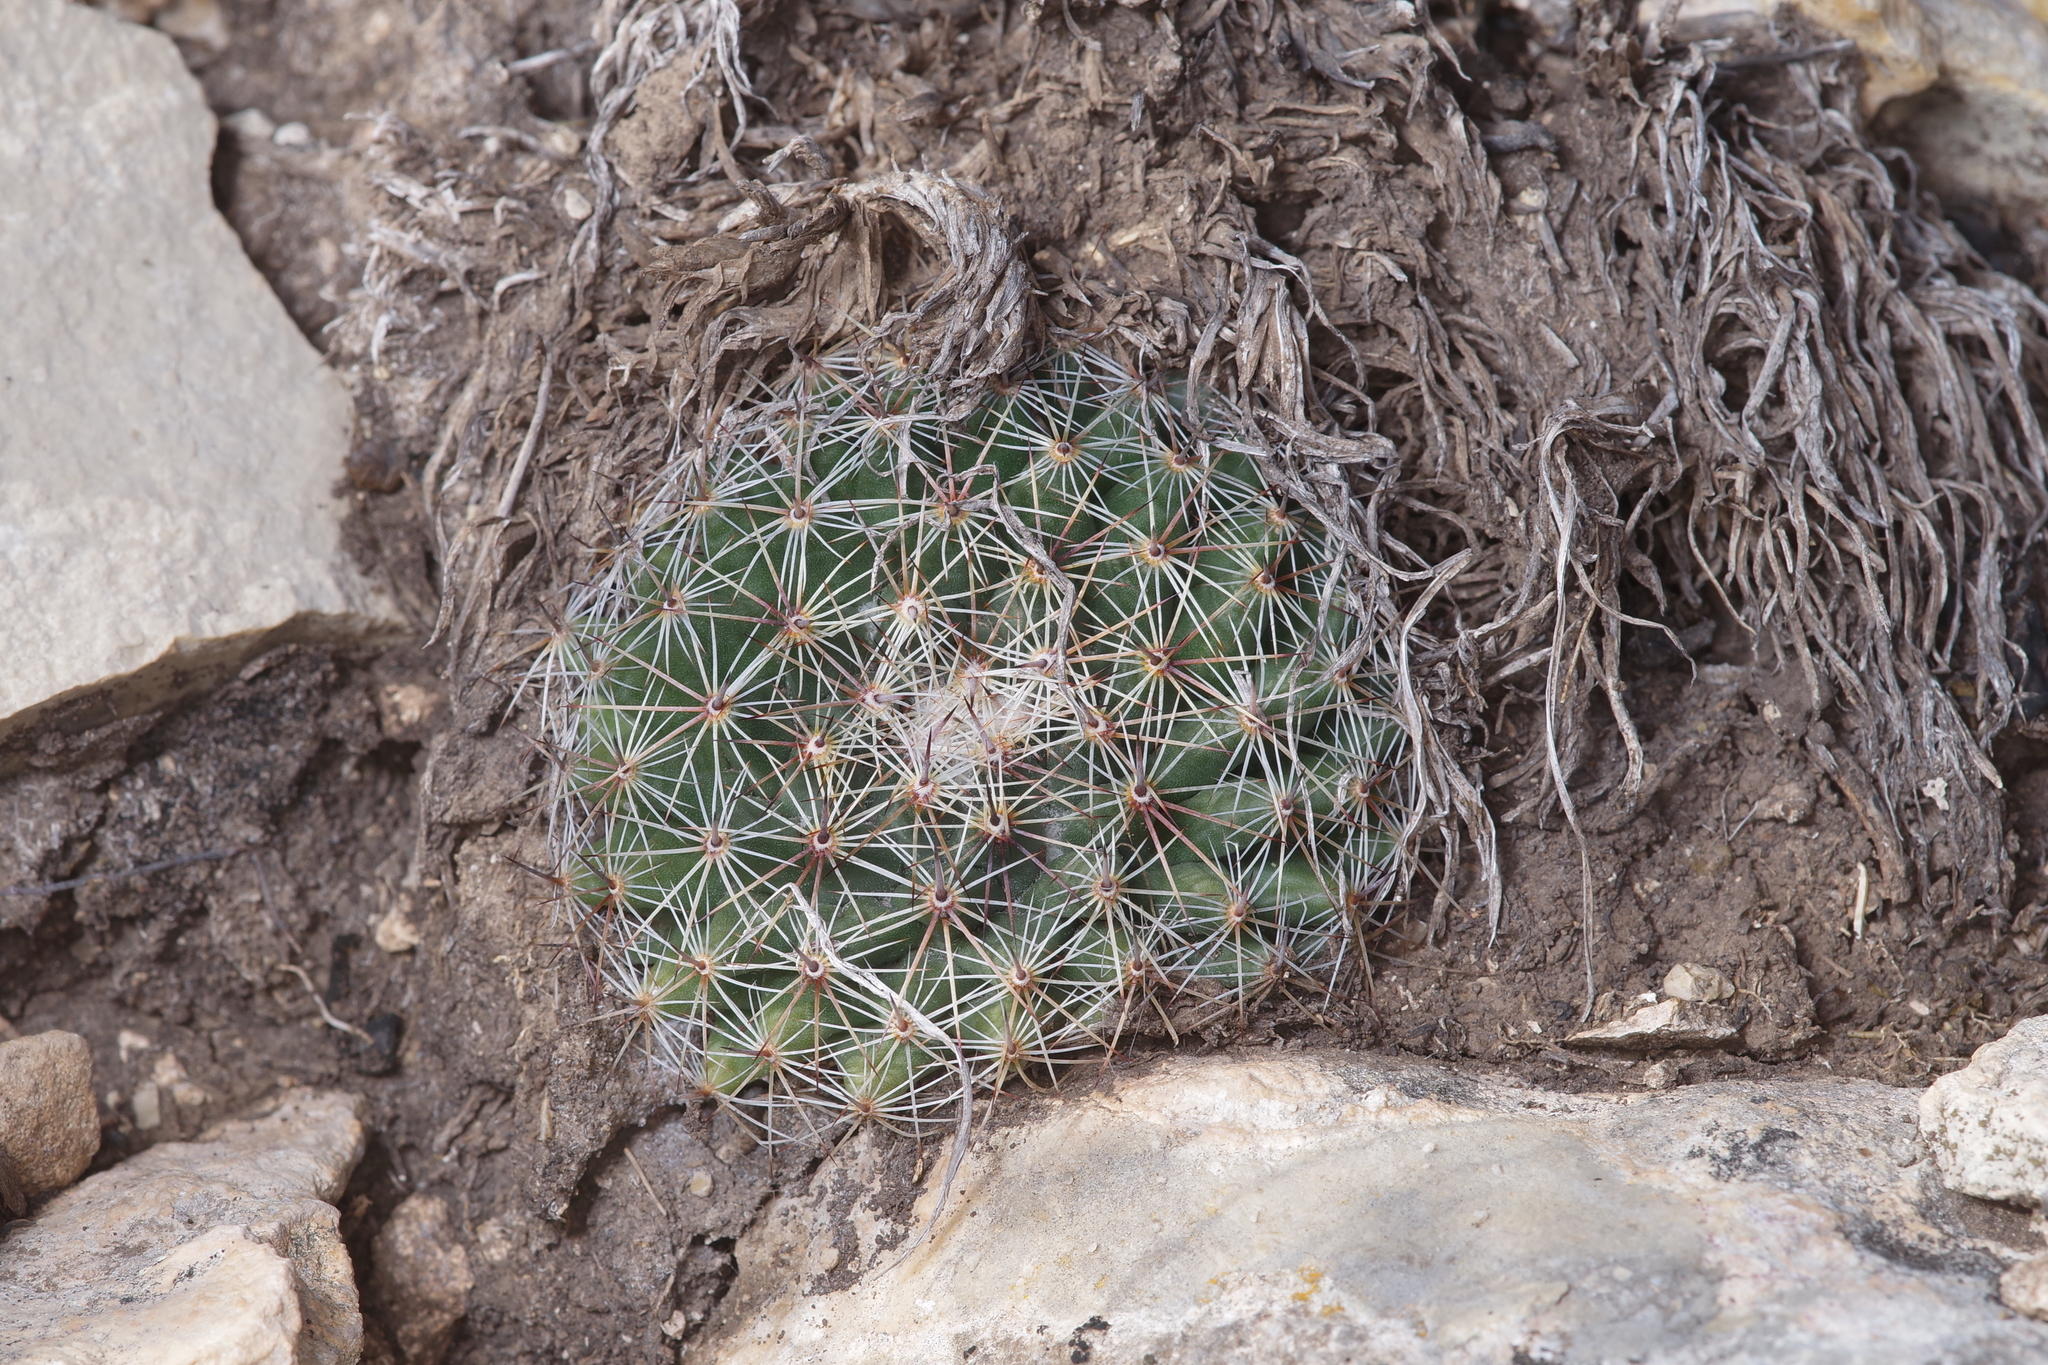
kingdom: Plantae
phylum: Tracheophyta
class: Magnoliopsida
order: Caryophyllales
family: Cactaceae
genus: Mammillaria
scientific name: Mammillaria heyderi
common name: Little nipple cactus
